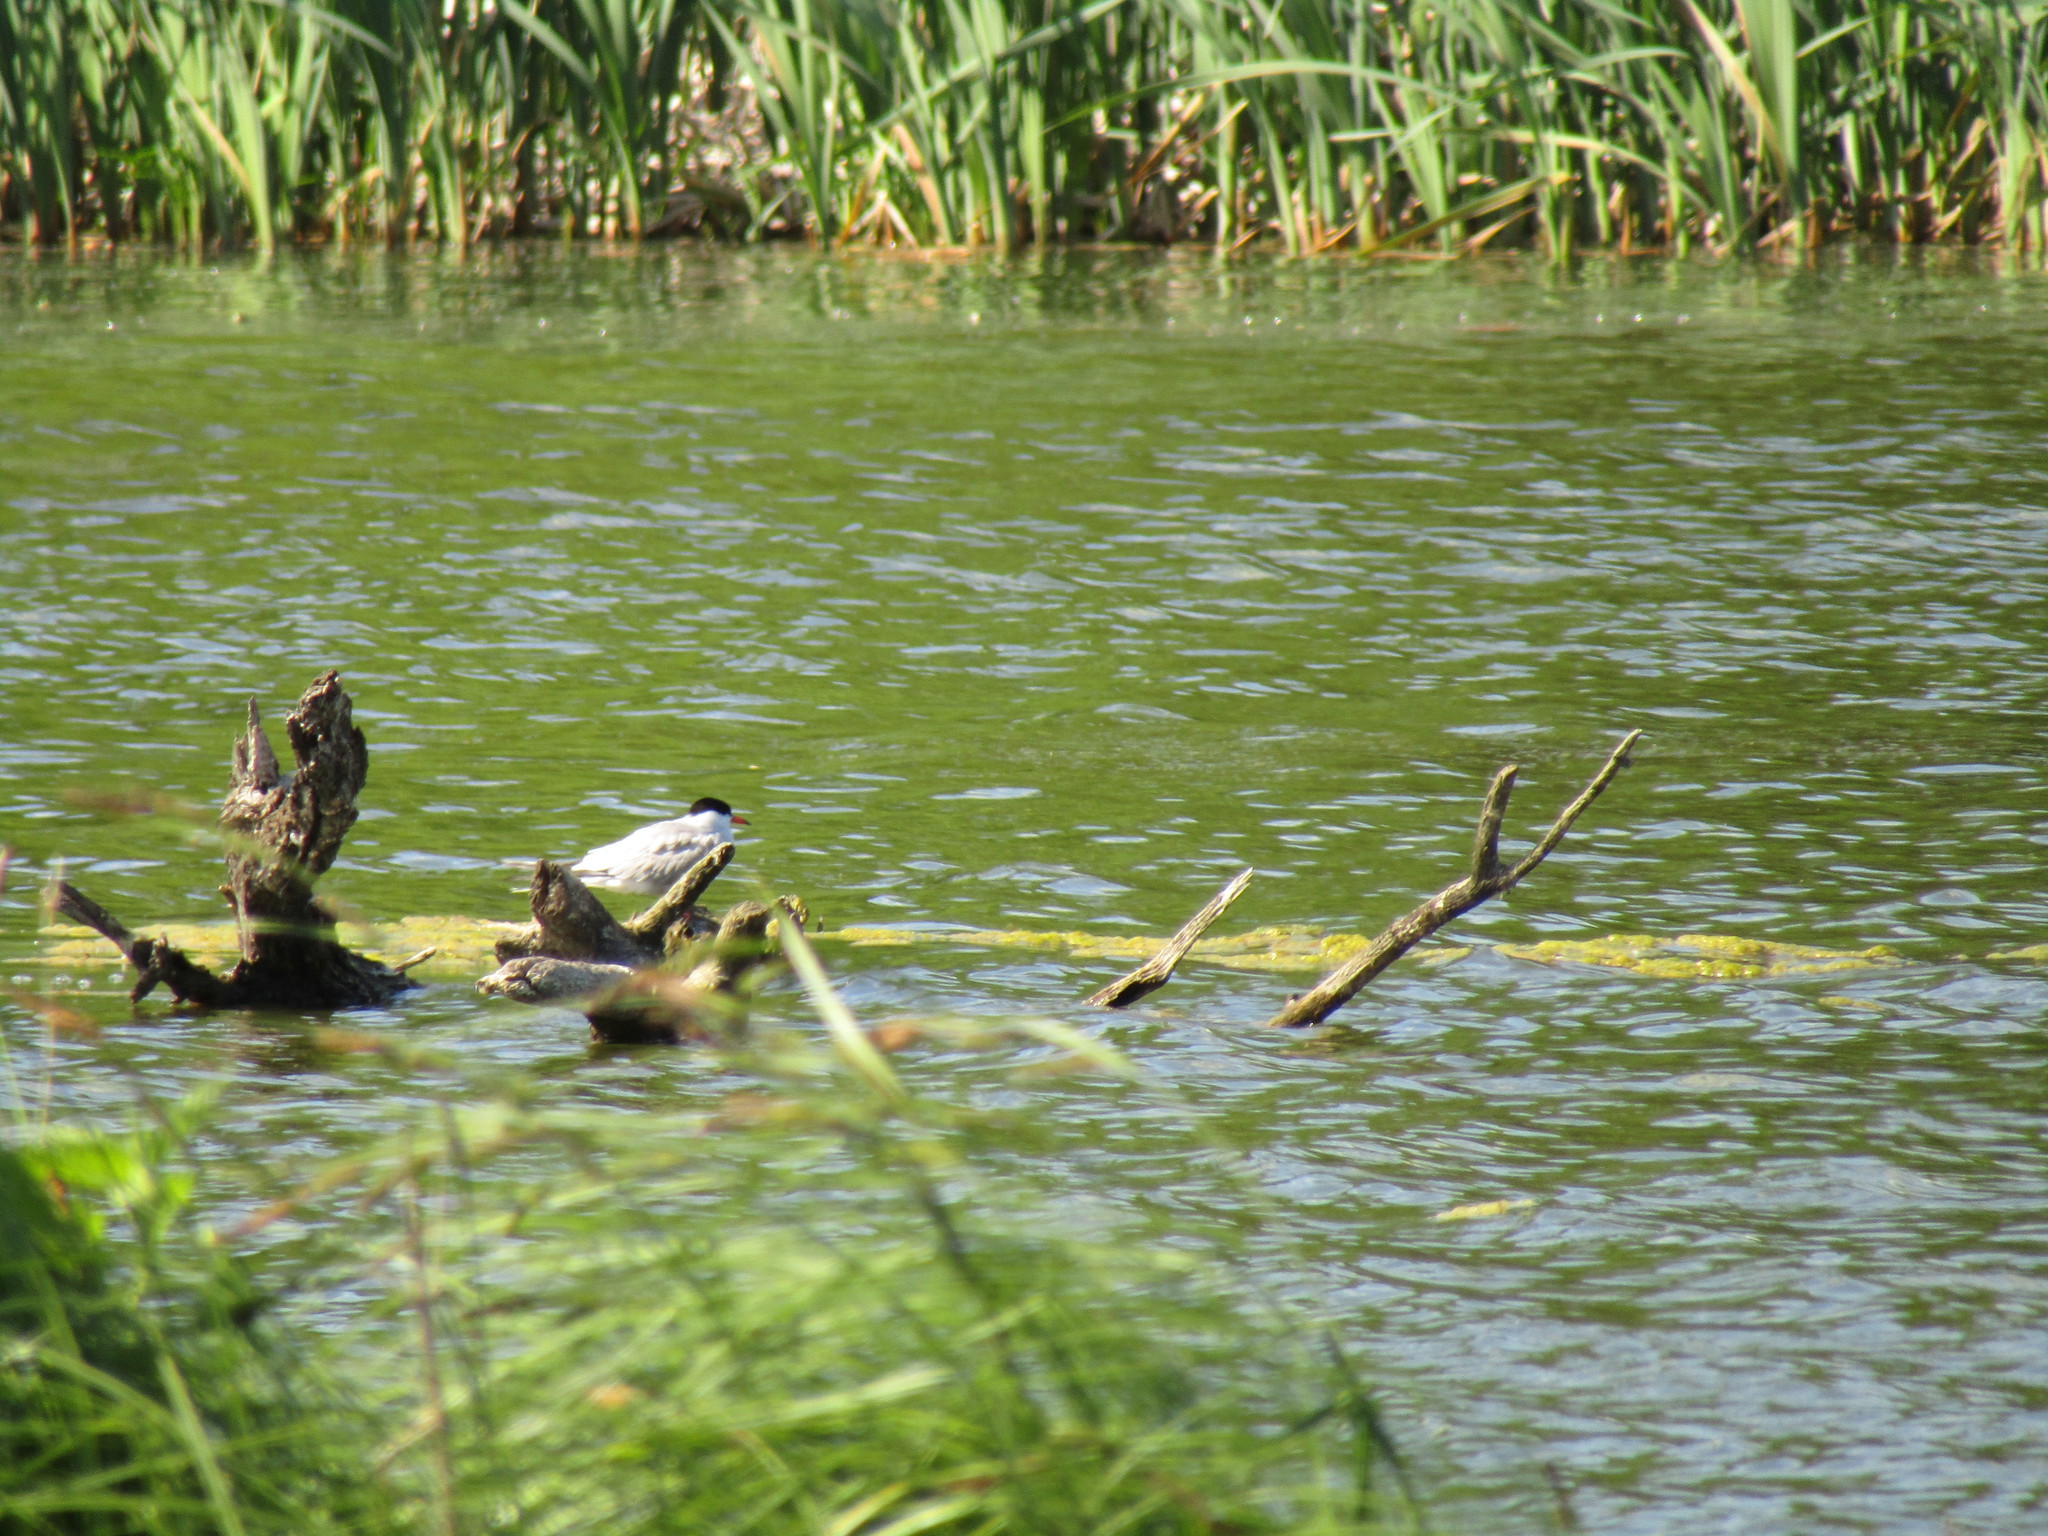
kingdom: Animalia
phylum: Chordata
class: Aves
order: Charadriiformes
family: Laridae
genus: Sterna
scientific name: Sterna hirundo
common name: Common tern
